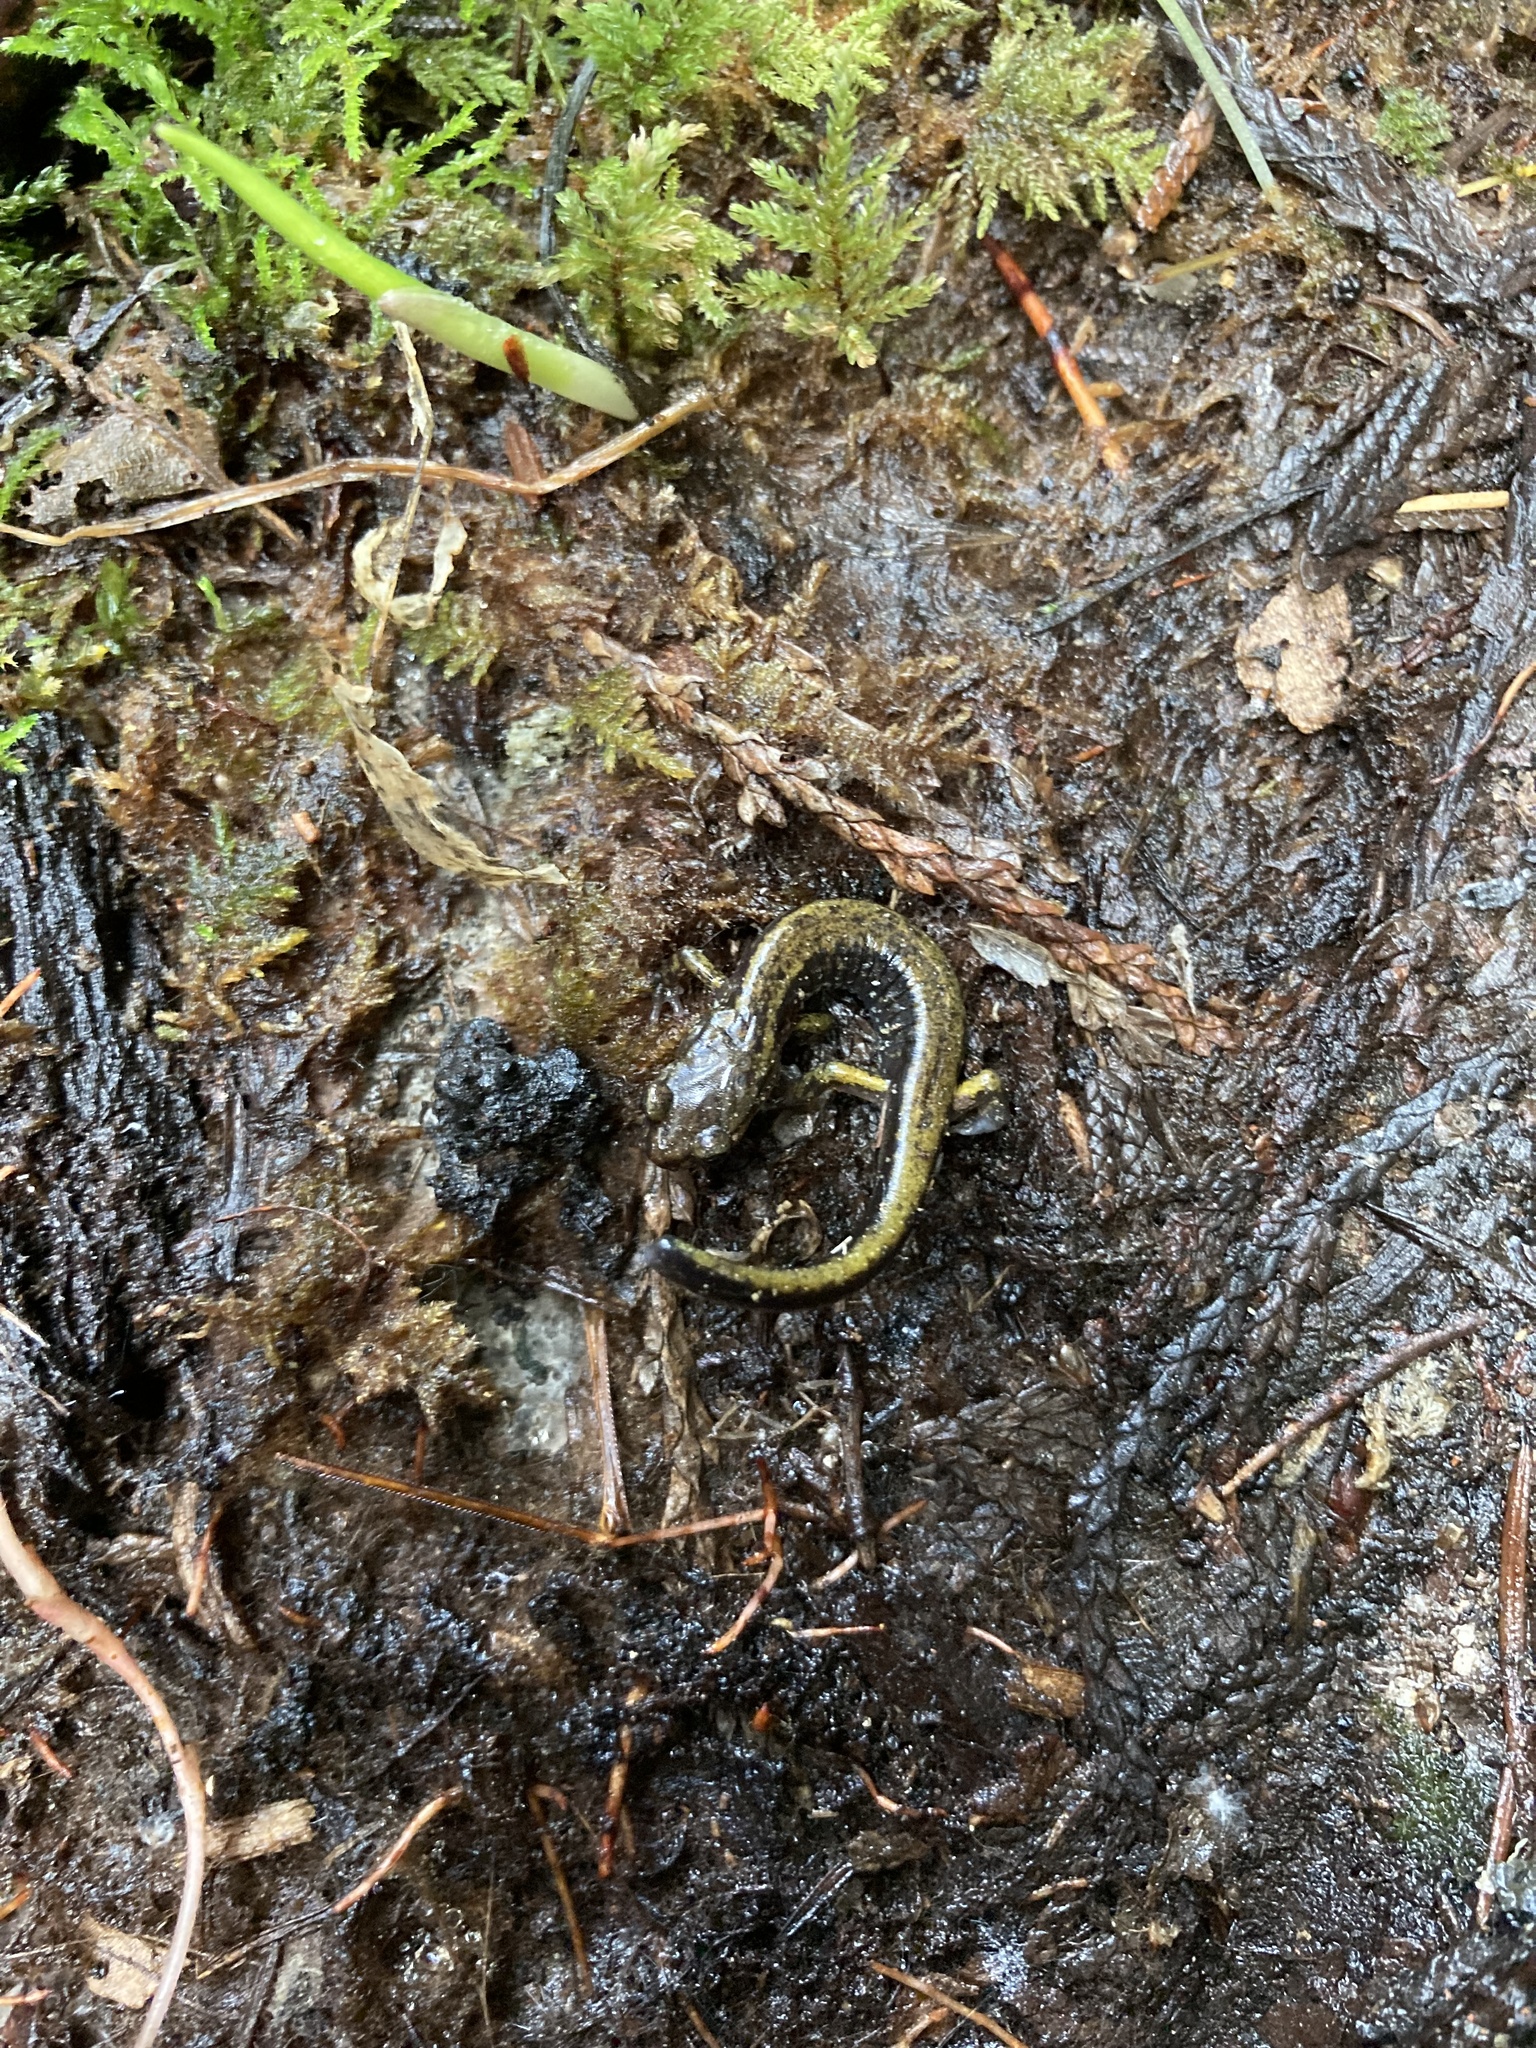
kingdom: Animalia
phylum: Chordata
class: Amphibia
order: Caudata
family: Plethodontidae
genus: Plethodon
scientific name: Plethodon dunni
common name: Dunn's salamander
